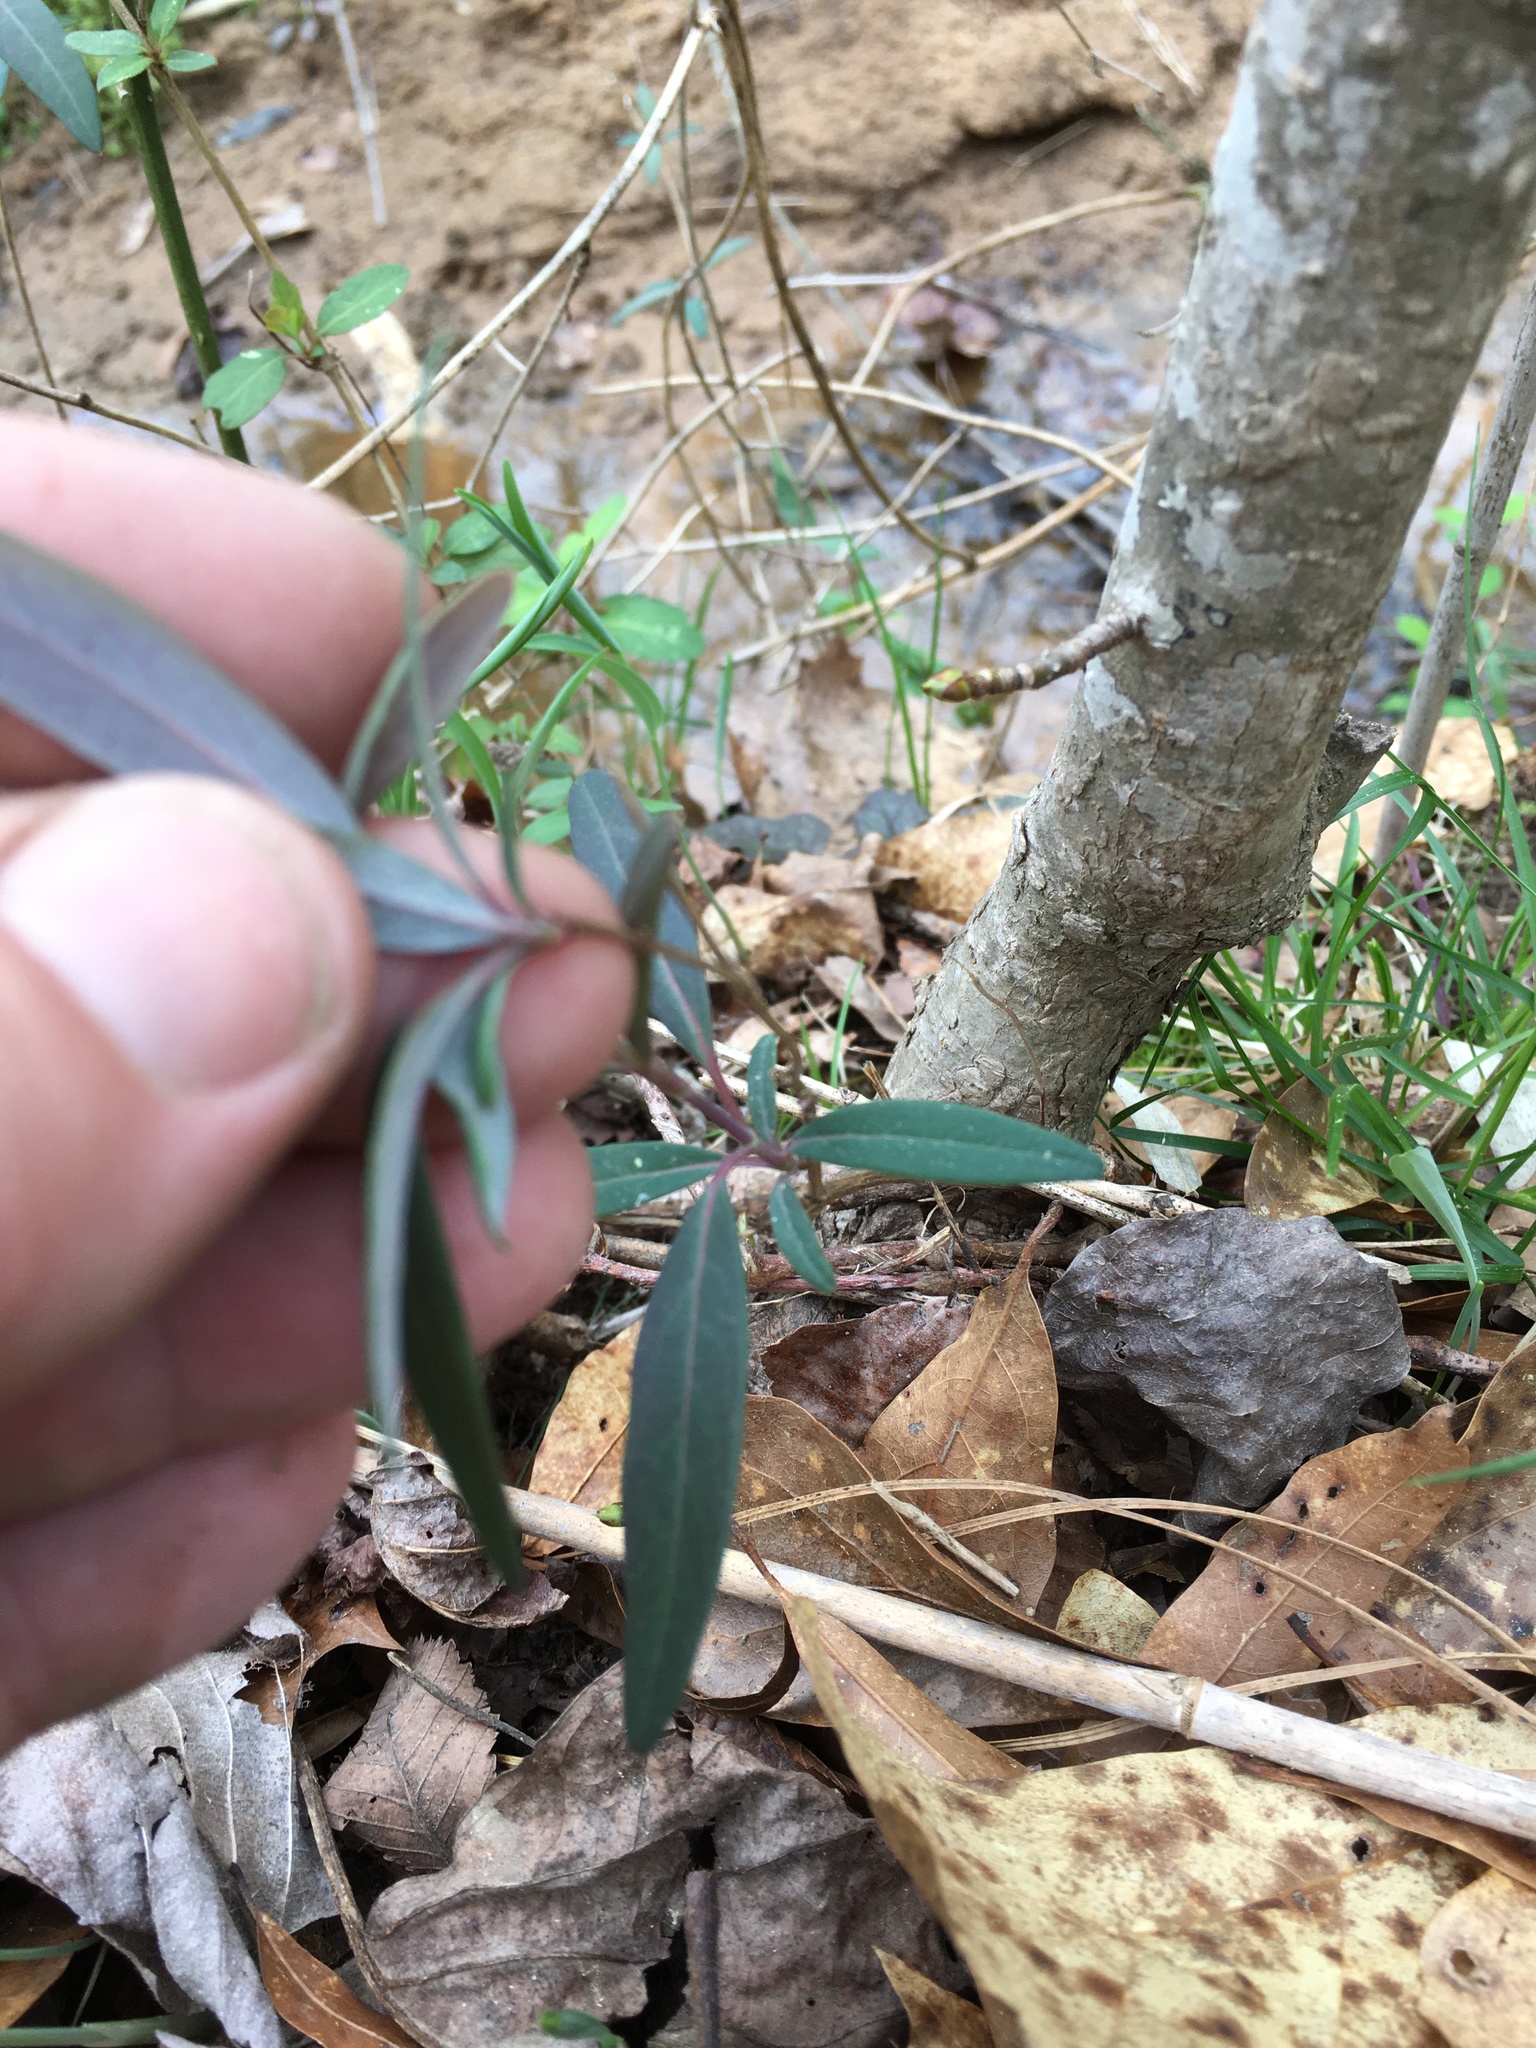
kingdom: Plantae
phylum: Tracheophyta
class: Magnoliopsida
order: Dipsacales
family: Caprifoliaceae
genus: Lonicera
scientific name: Lonicera sempervirens
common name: Coral honeysuckle
